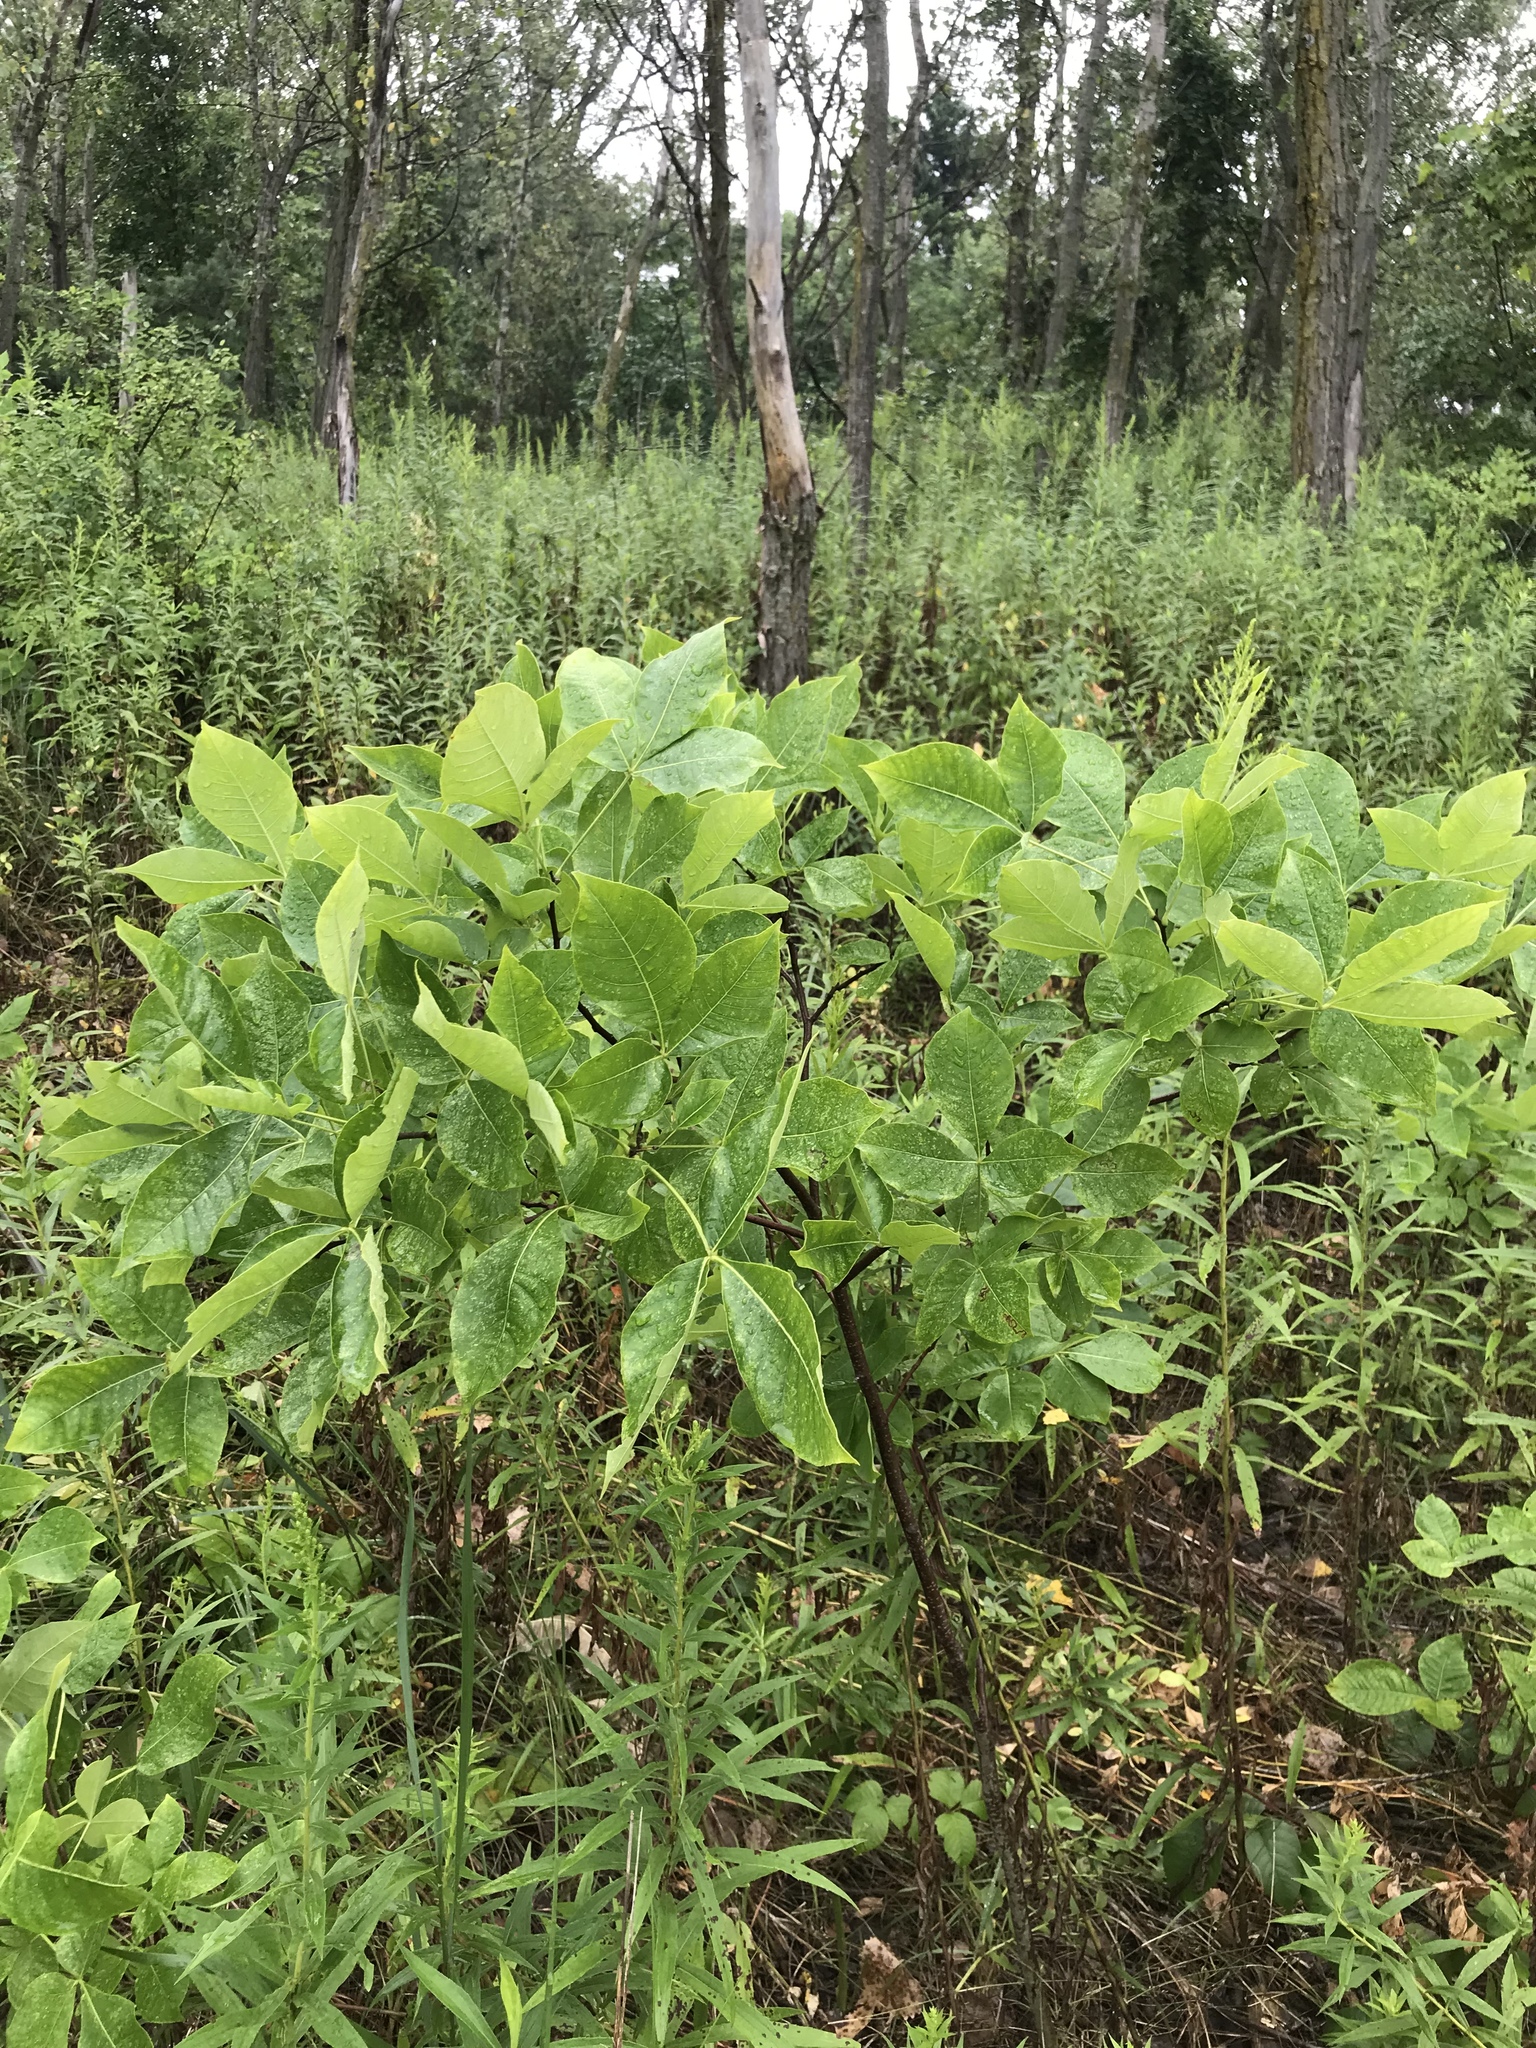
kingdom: Plantae
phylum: Tracheophyta
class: Magnoliopsida
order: Sapindales
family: Rutaceae
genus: Ptelea
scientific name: Ptelea trifoliata
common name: Common hop-tree
